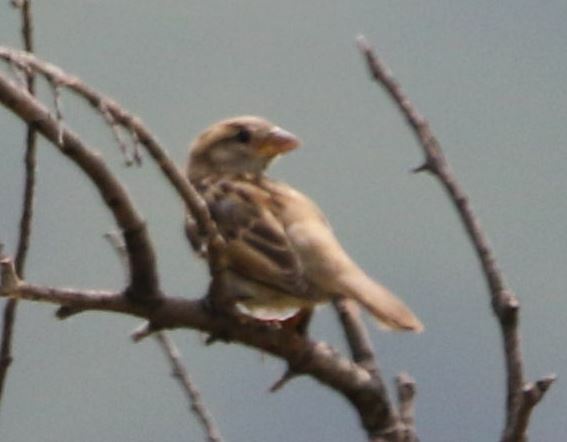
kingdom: Animalia
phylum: Chordata
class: Aves
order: Passeriformes
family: Passeridae
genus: Passer
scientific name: Passer domesticus
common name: House sparrow
